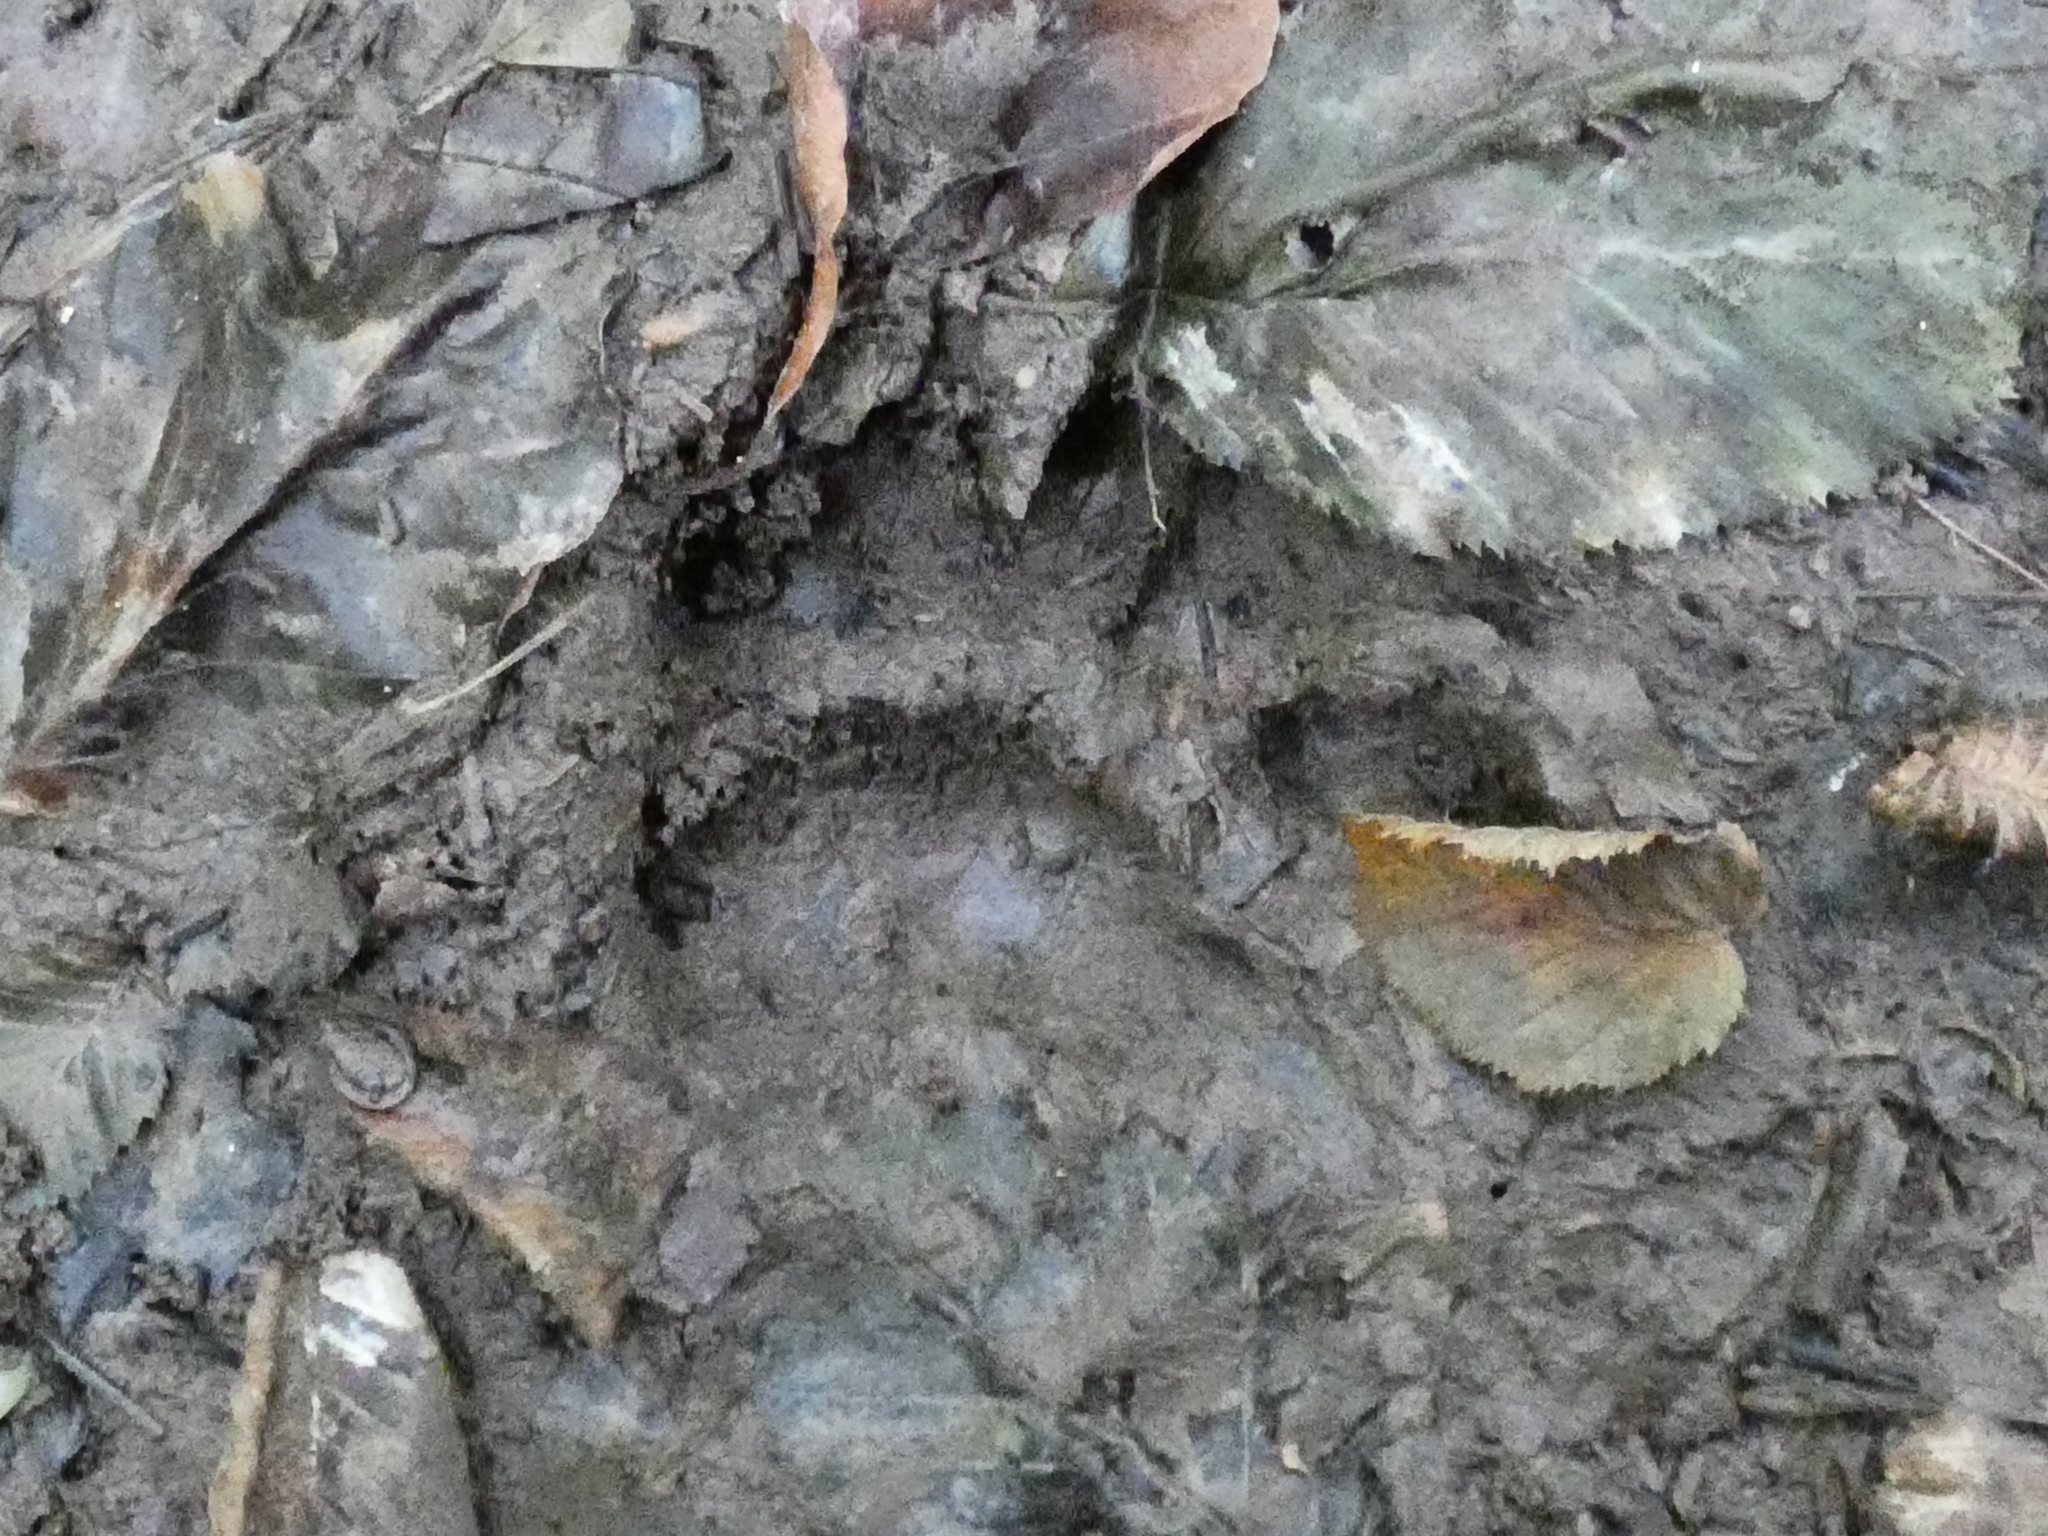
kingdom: Animalia
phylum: Chordata
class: Mammalia
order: Carnivora
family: Mustelidae
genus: Meles
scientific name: Meles meles
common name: Eurasian badger
